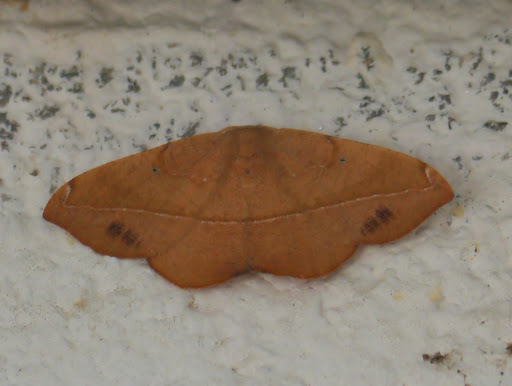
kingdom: Animalia
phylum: Arthropoda
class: Insecta
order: Lepidoptera
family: Geometridae
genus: Patalene
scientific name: Patalene olyzonaria
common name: Juniper geometer moth
